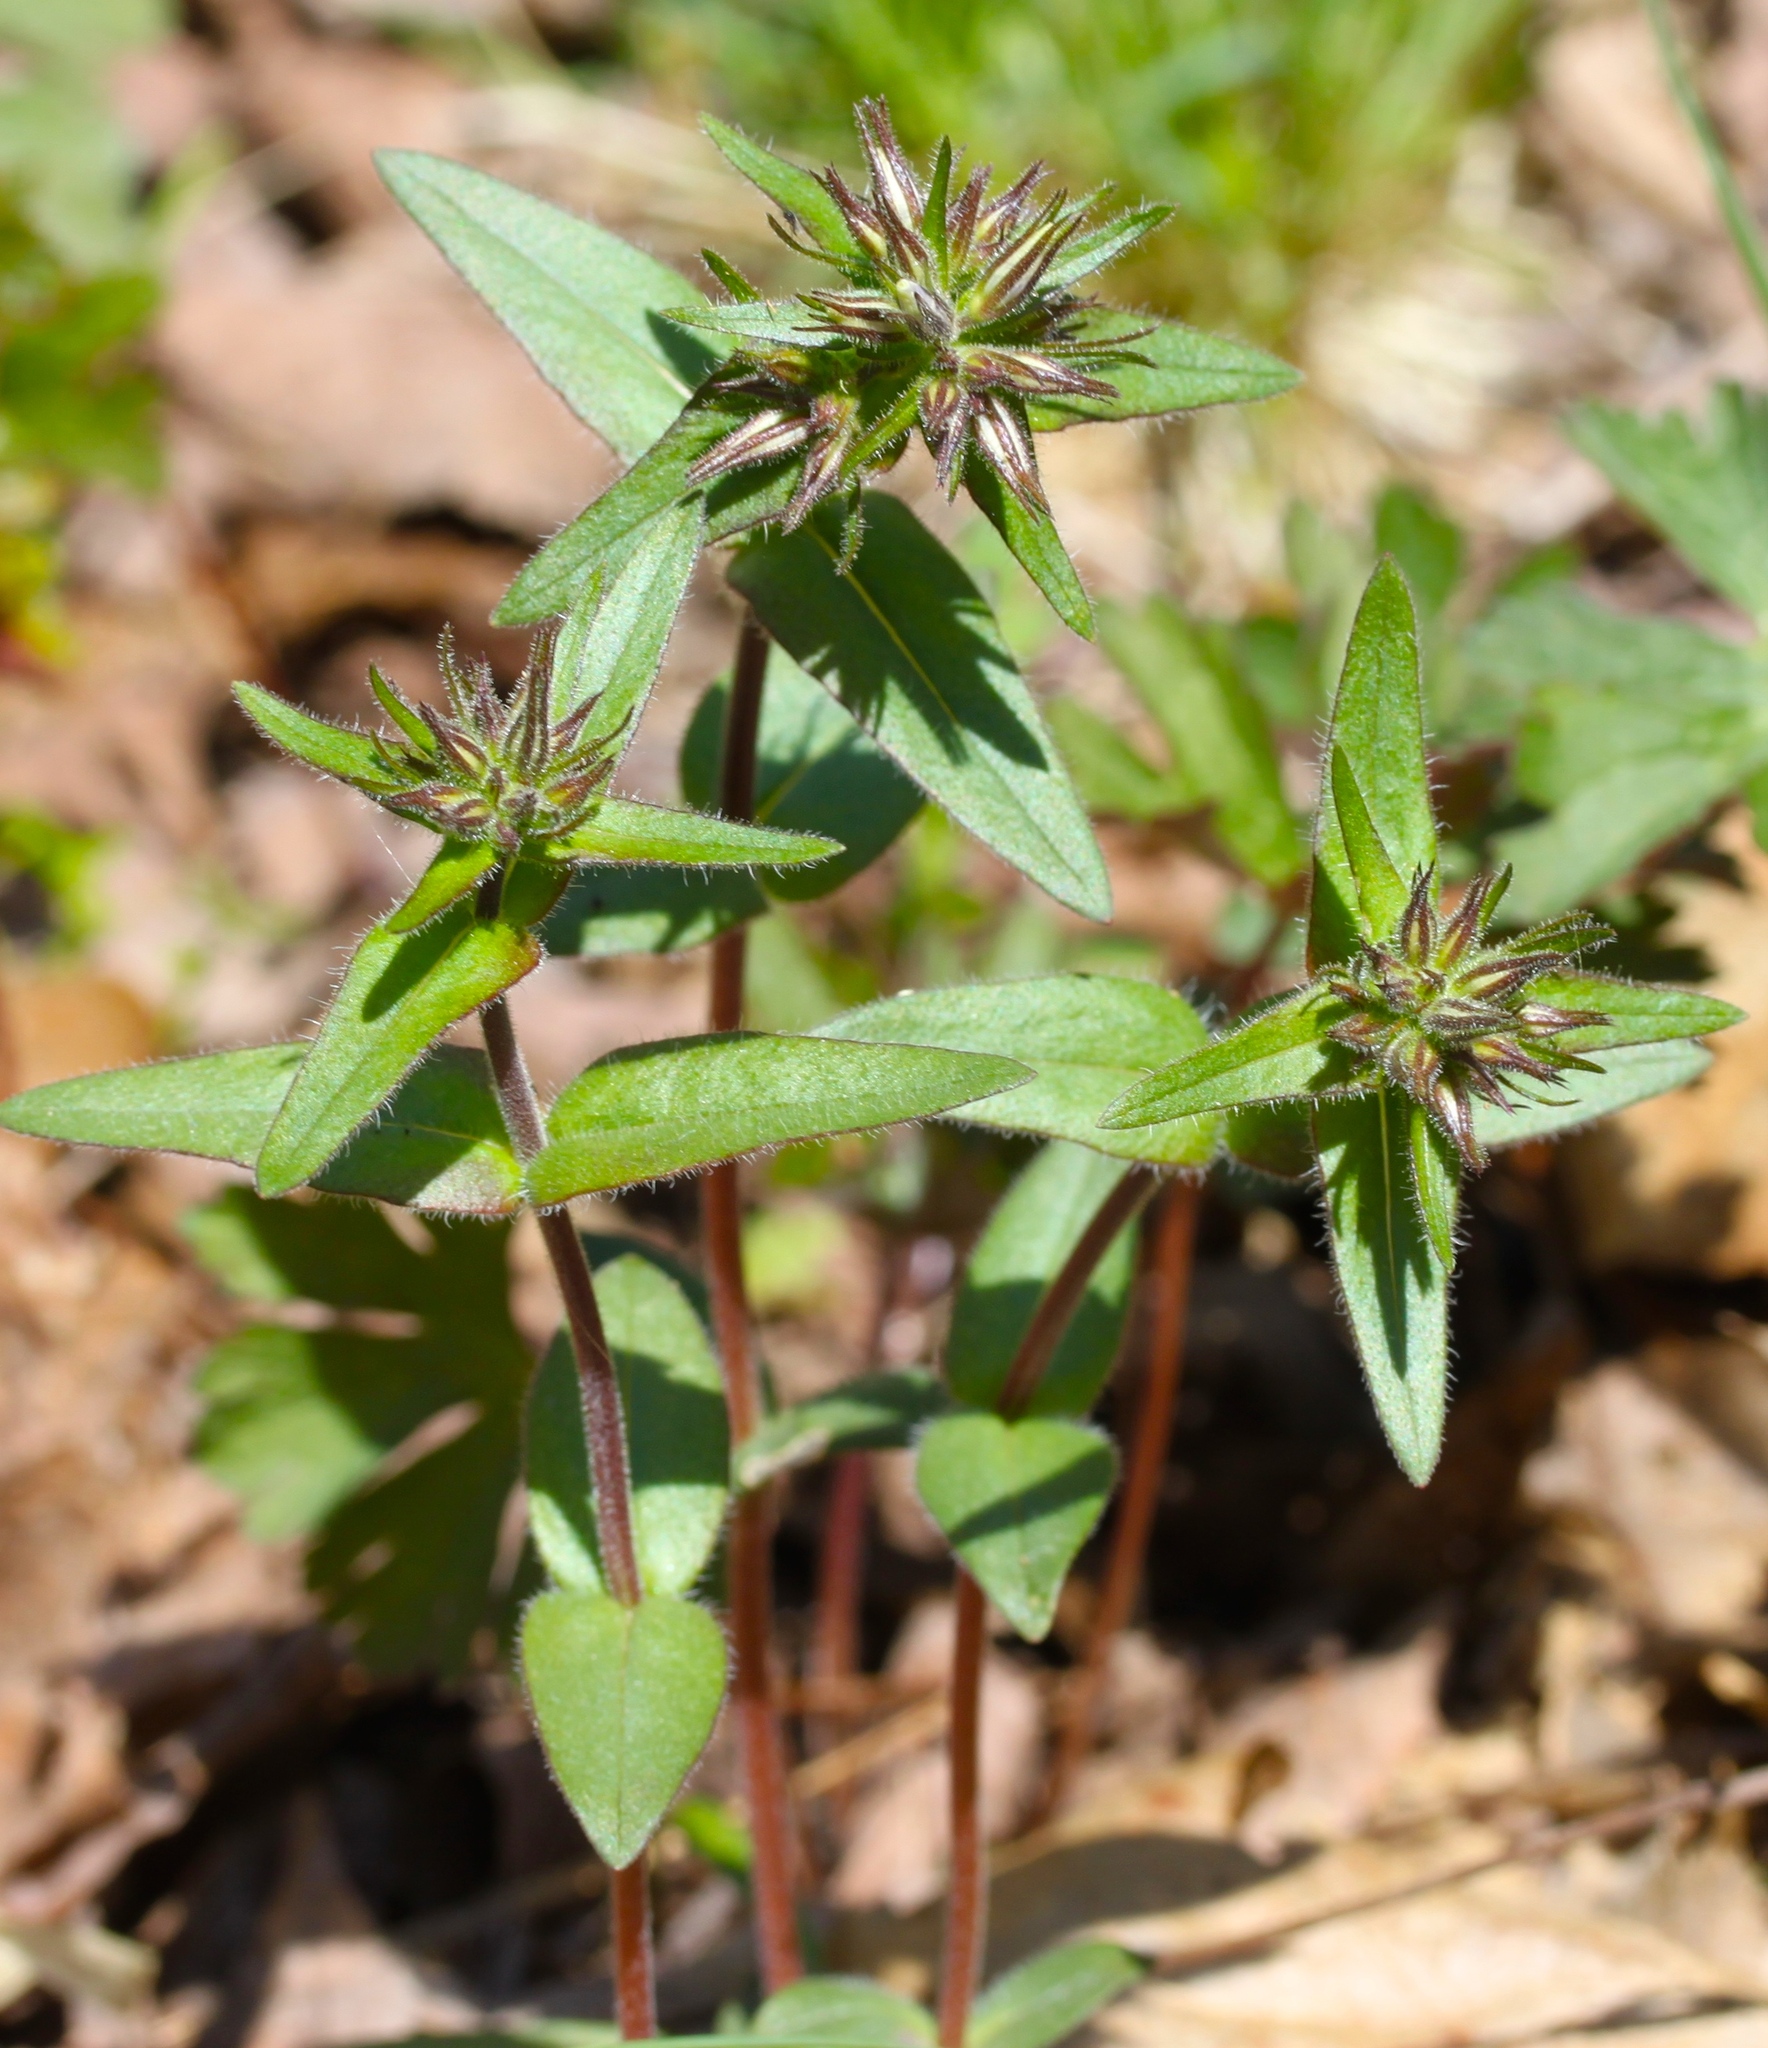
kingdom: Plantae
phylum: Tracheophyta
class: Magnoliopsida
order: Ericales
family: Polemoniaceae
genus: Phlox
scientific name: Phlox divaricata
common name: Blue phlox
